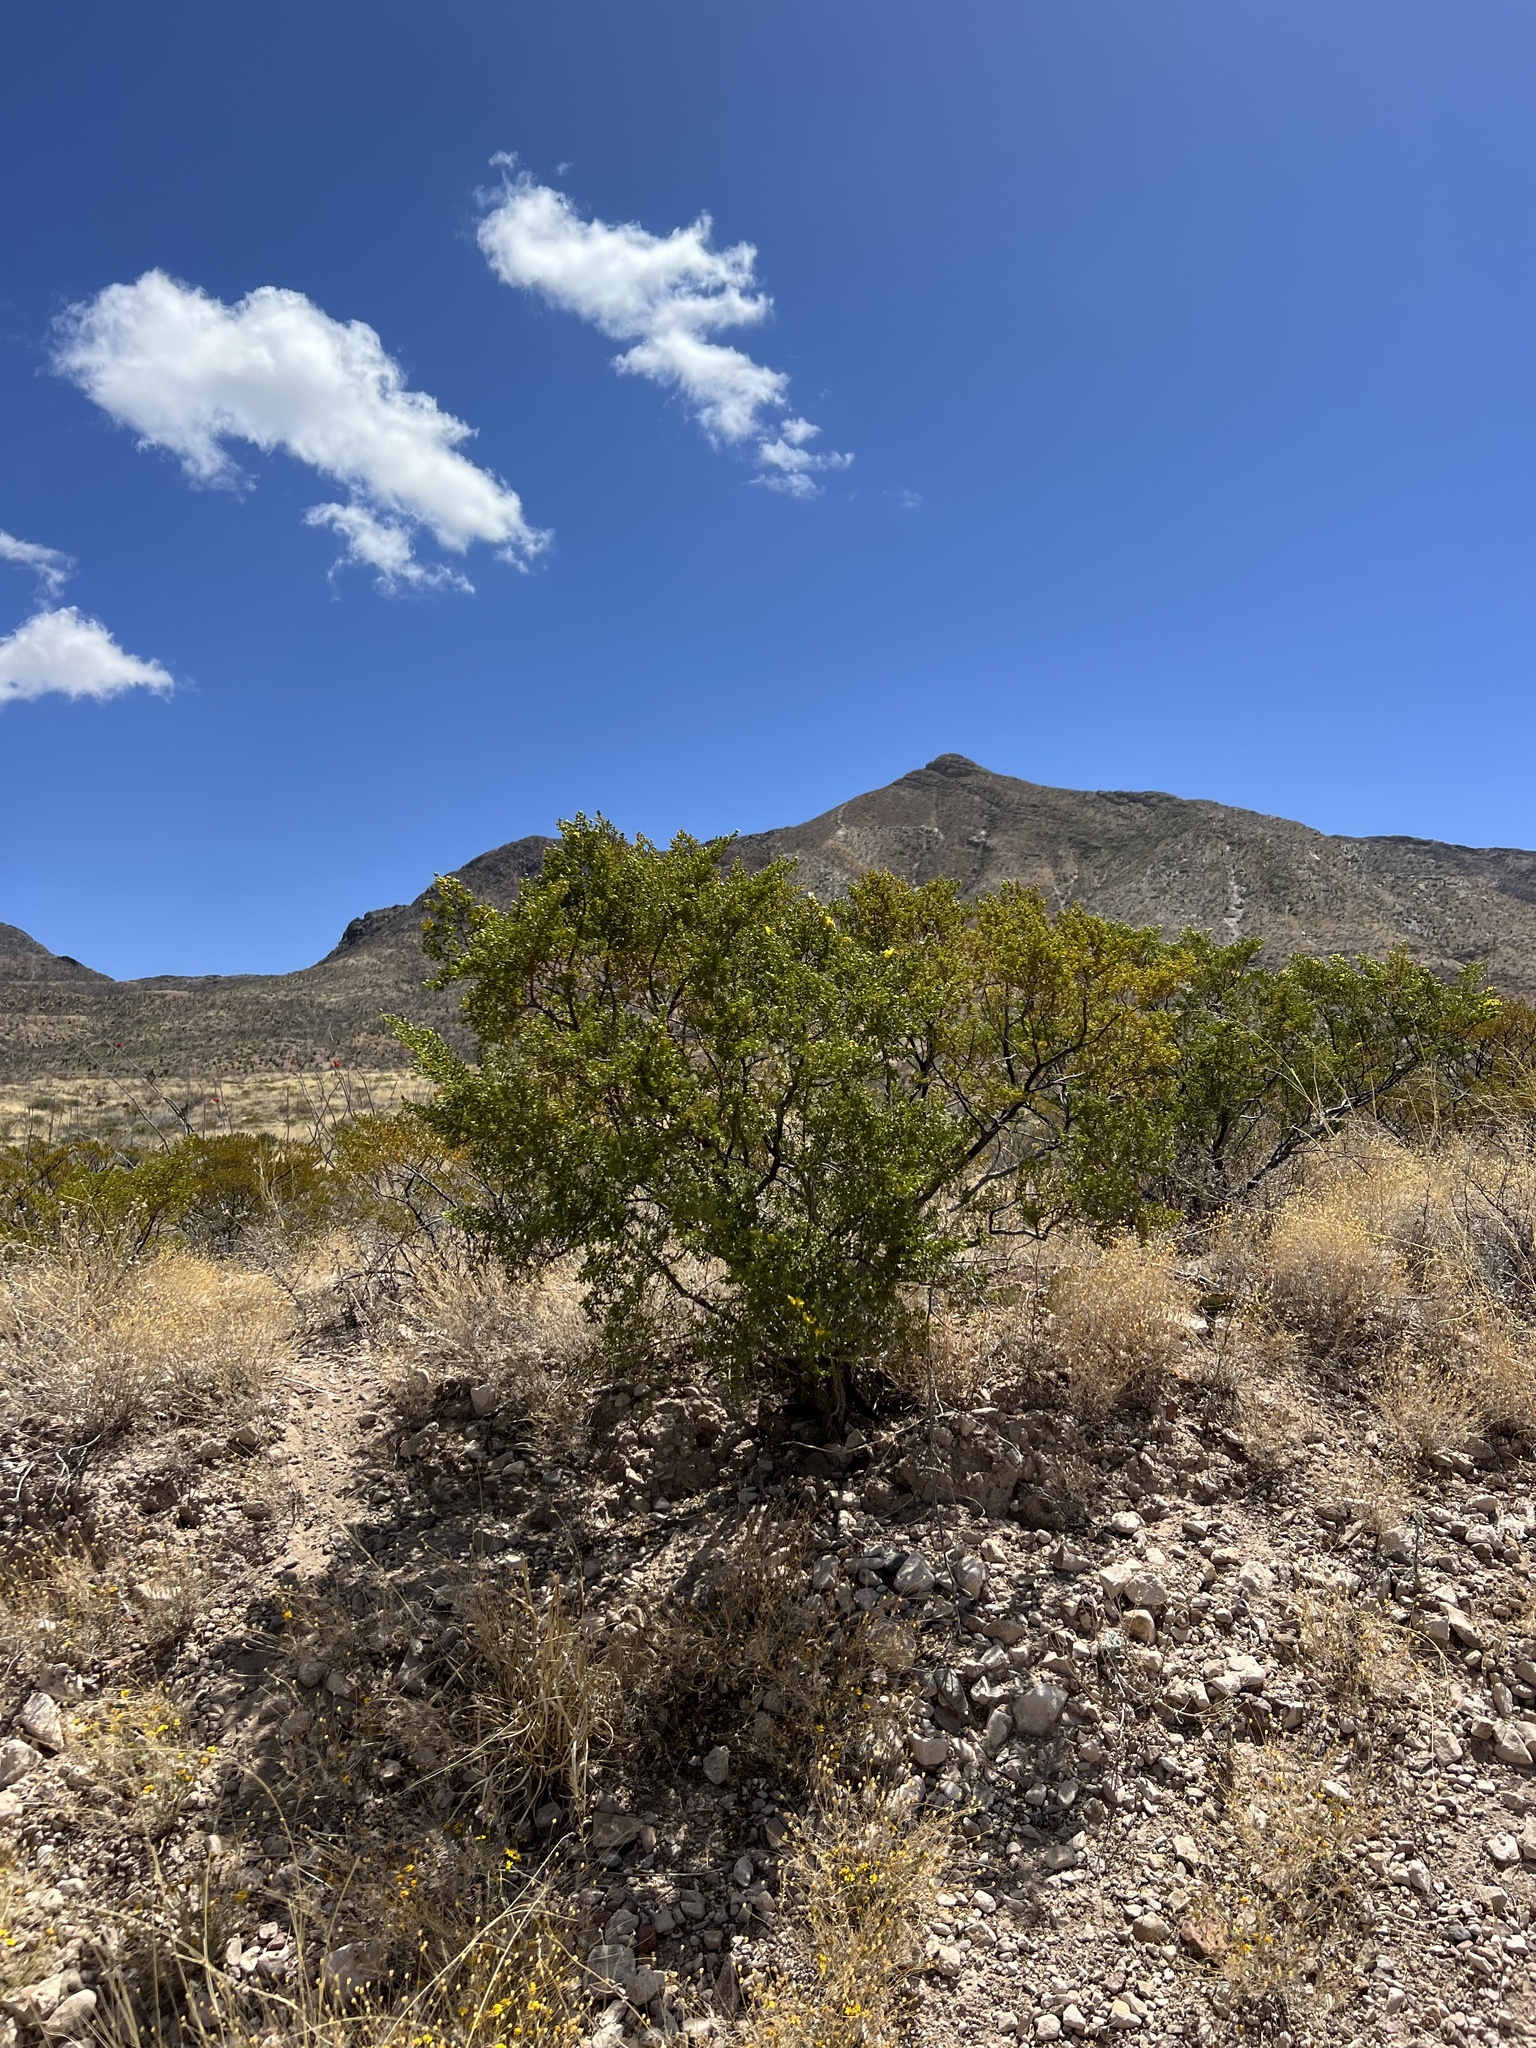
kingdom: Plantae
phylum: Tracheophyta
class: Magnoliopsida
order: Zygophyllales
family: Zygophyllaceae
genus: Larrea
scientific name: Larrea tridentata
